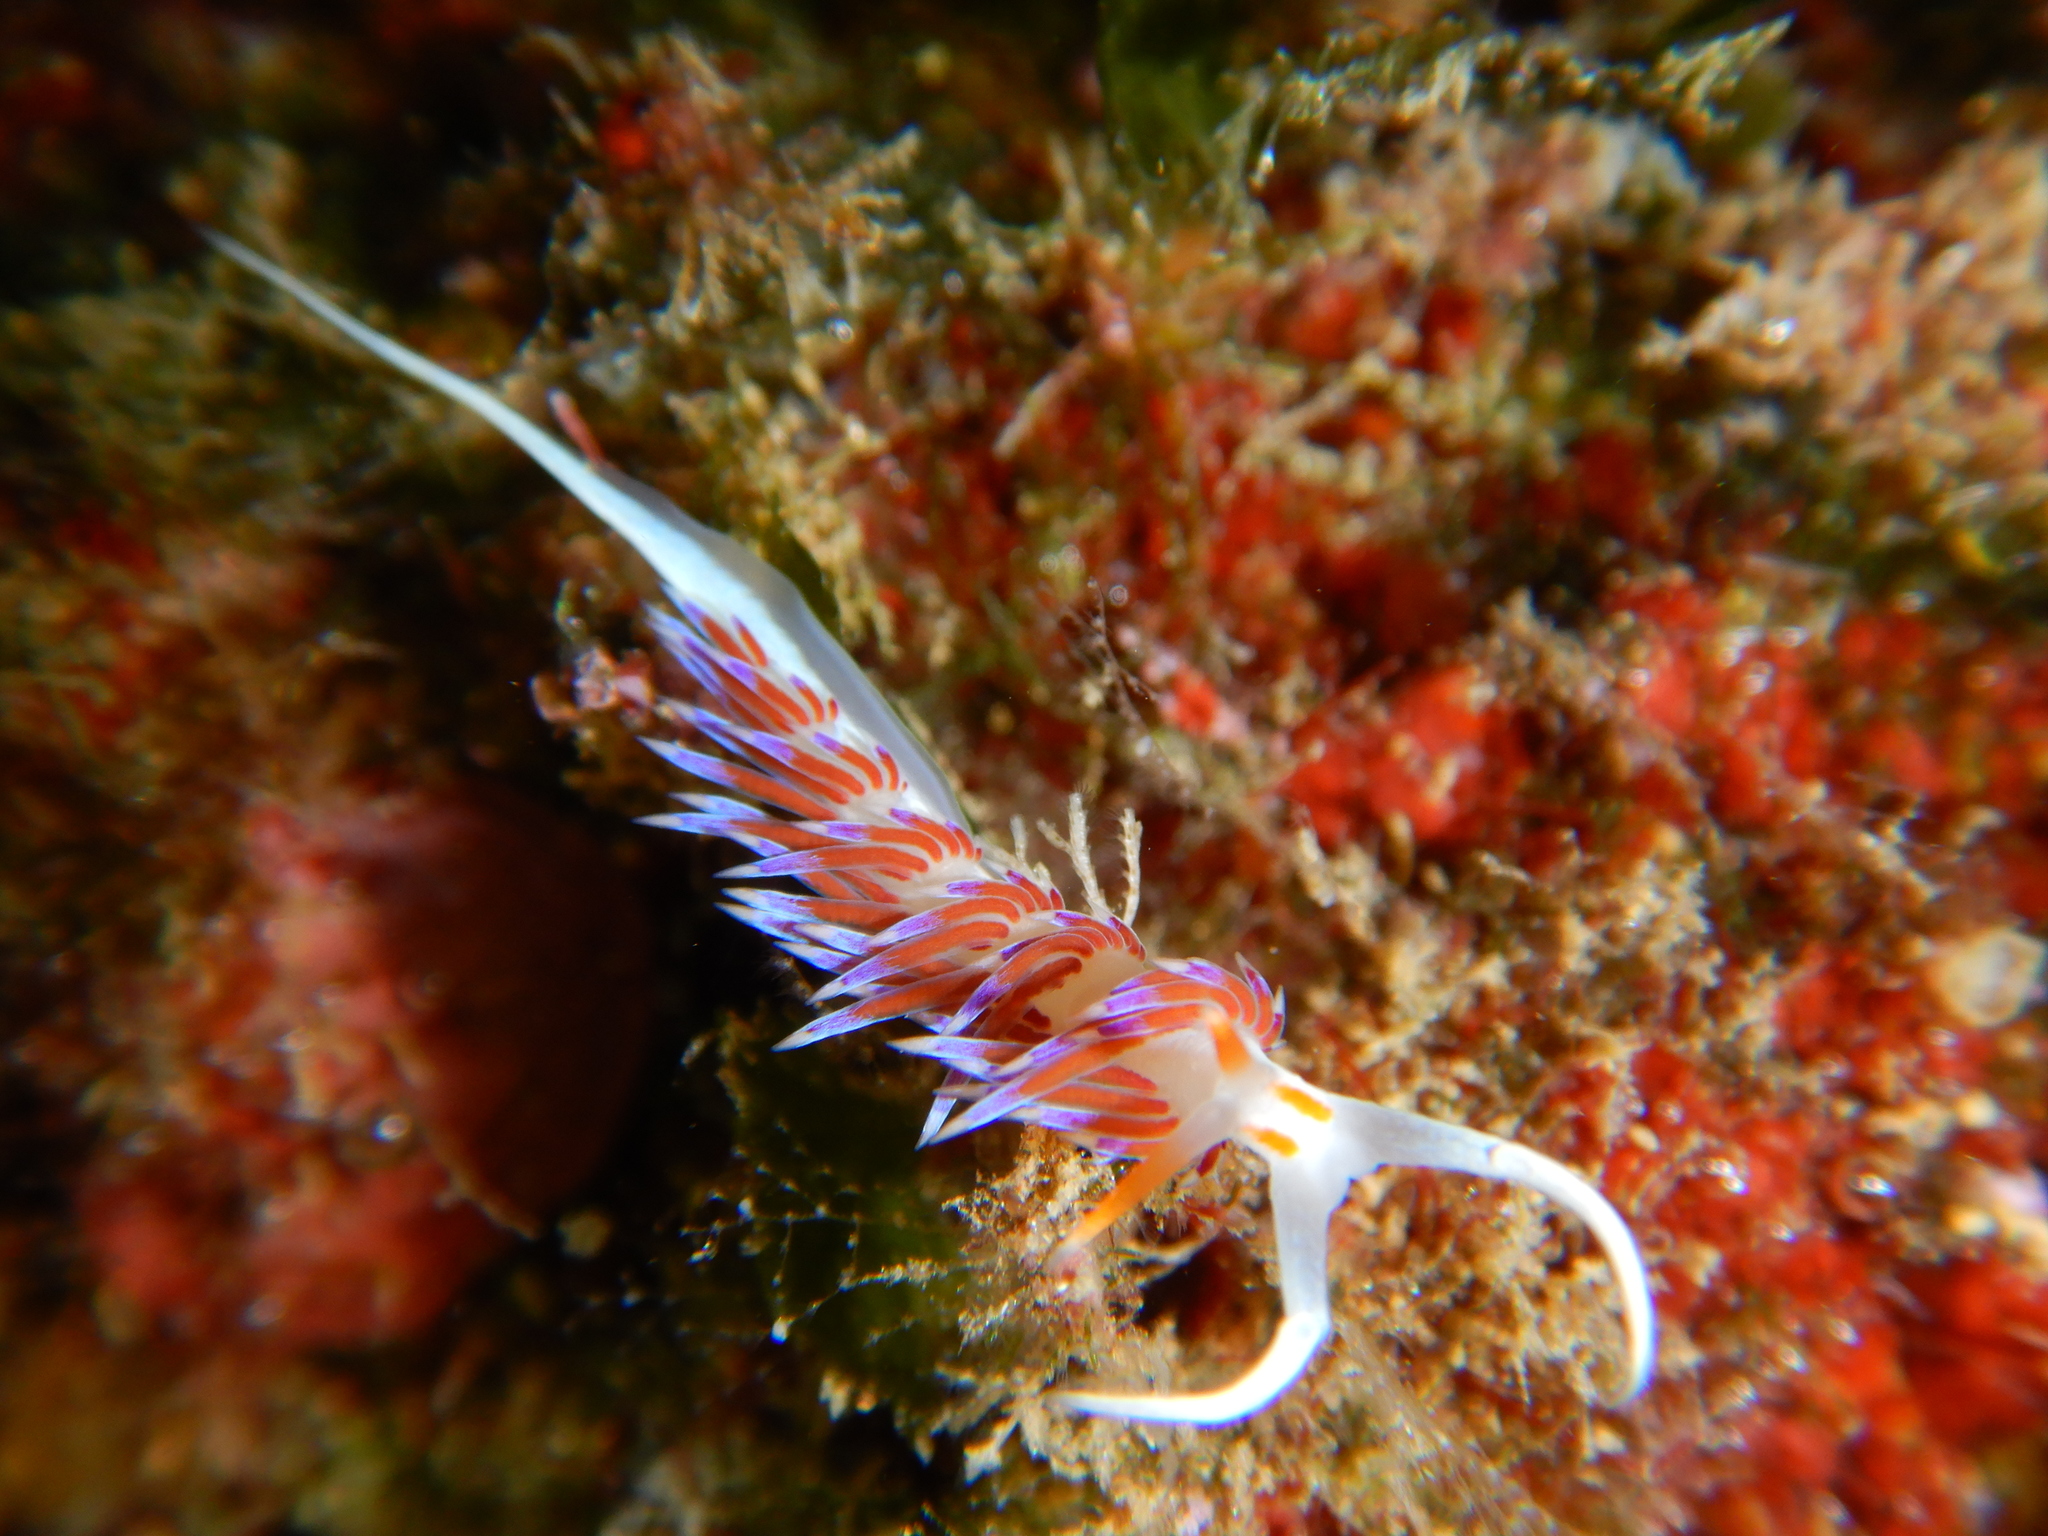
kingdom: Animalia
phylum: Mollusca
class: Gastropoda
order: Nudibranchia
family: Facelinidae
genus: Cratena
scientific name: Cratena peregrina
